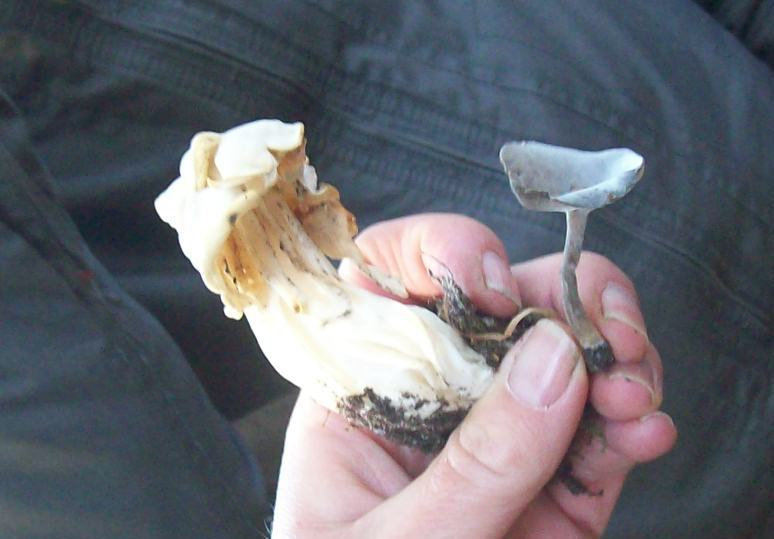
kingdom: Fungi
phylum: Ascomycota
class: Pezizomycetes
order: Pezizales
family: Helvellaceae
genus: Helvella
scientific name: Helvella crispa
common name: White saddle
